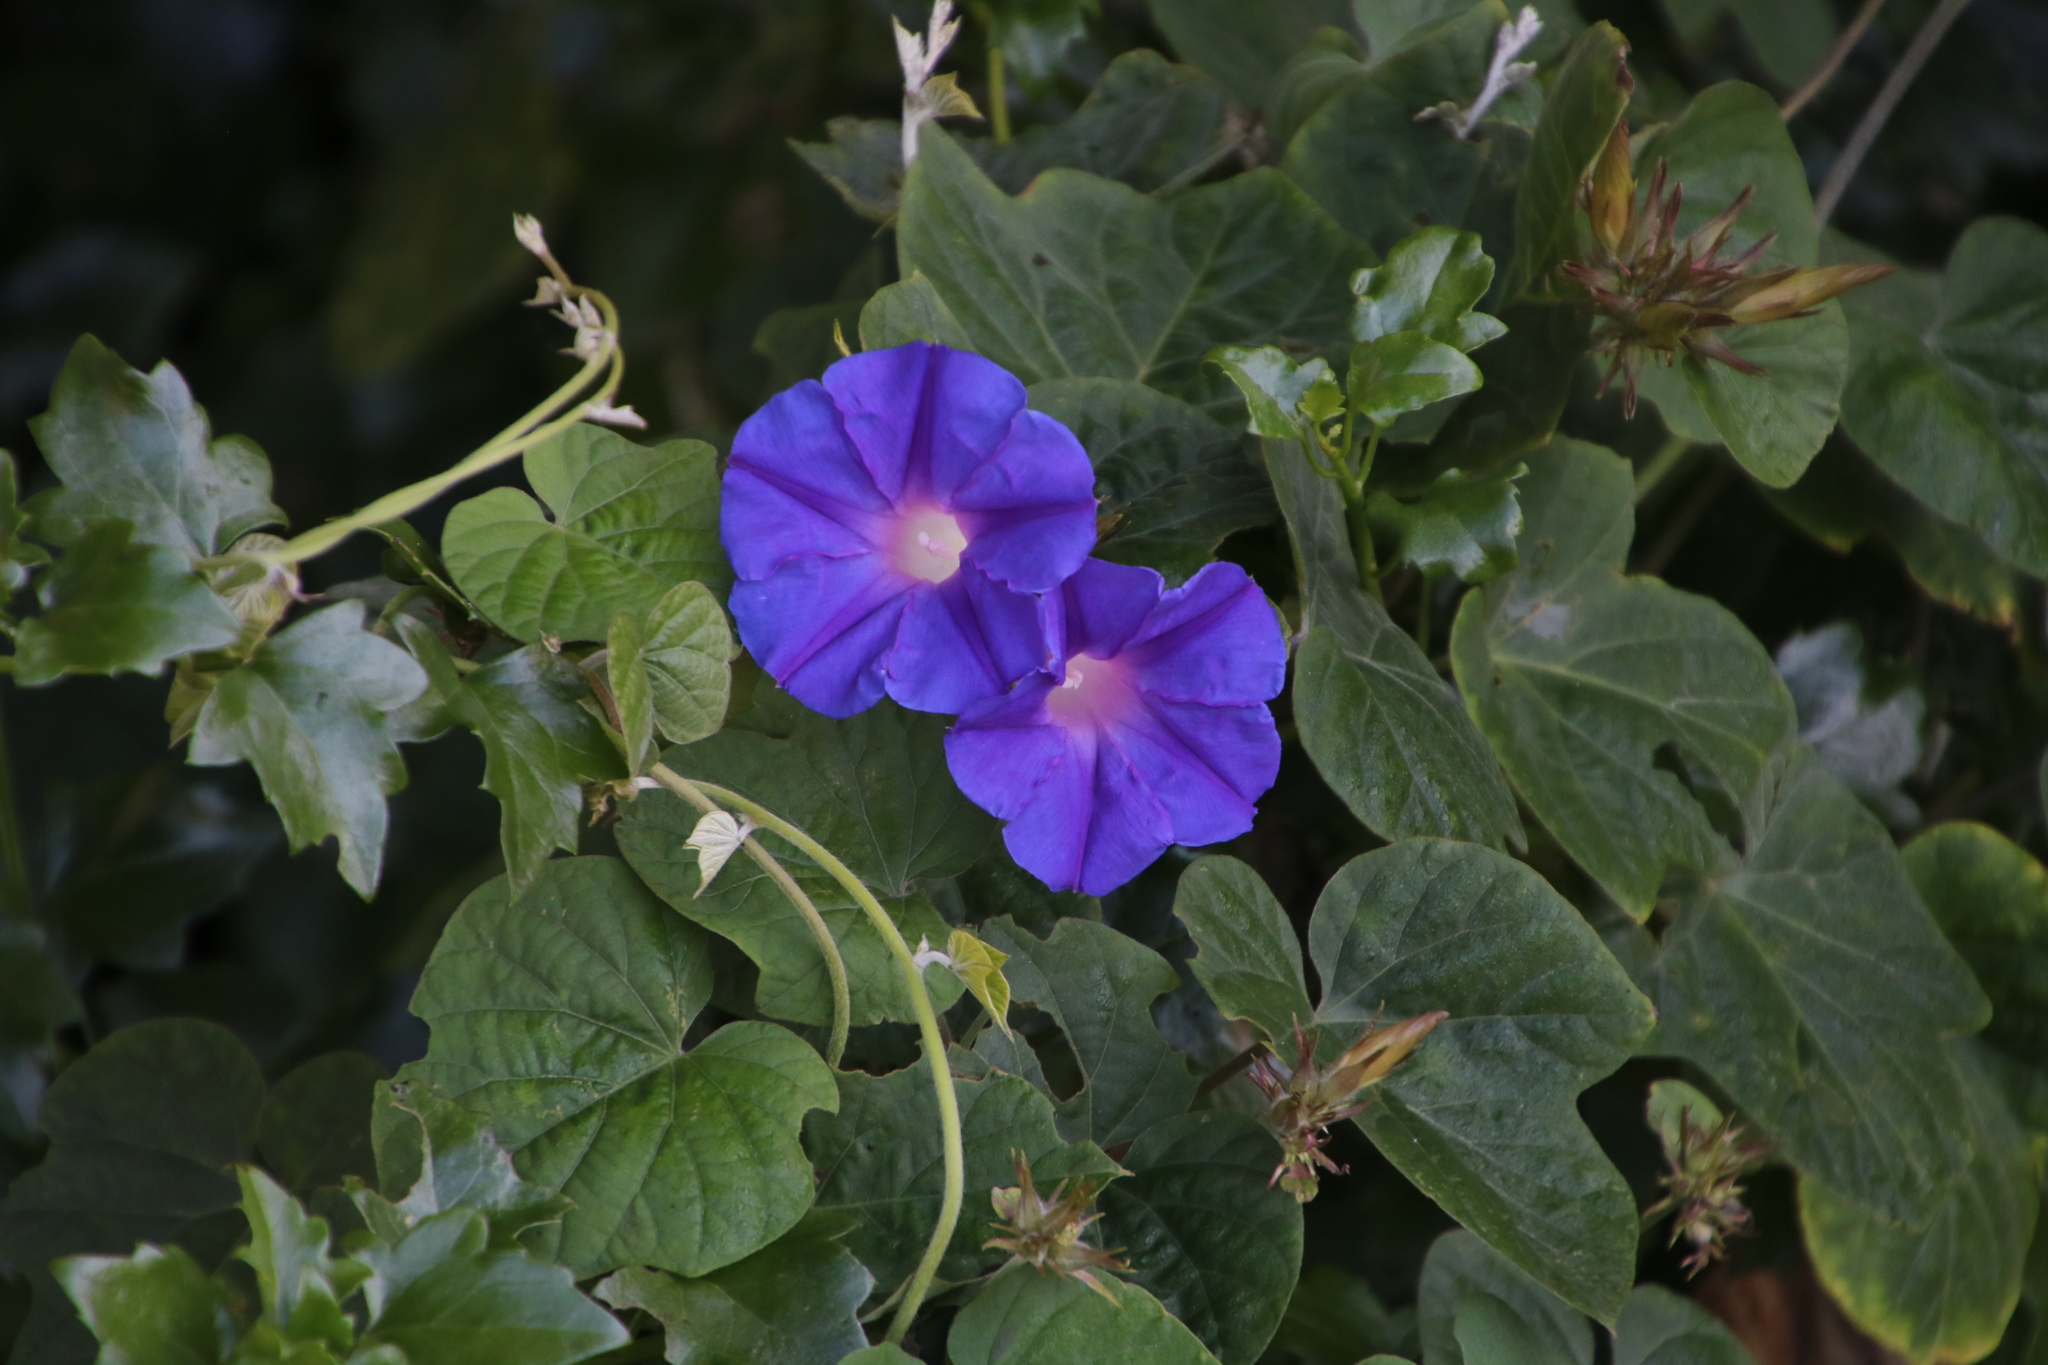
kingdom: Plantae
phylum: Tracheophyta
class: Magnoliopsida
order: Solanales
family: Convolvulaceae
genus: Ipomoea
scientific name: Ipomoea indica
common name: Blue dawnflower
